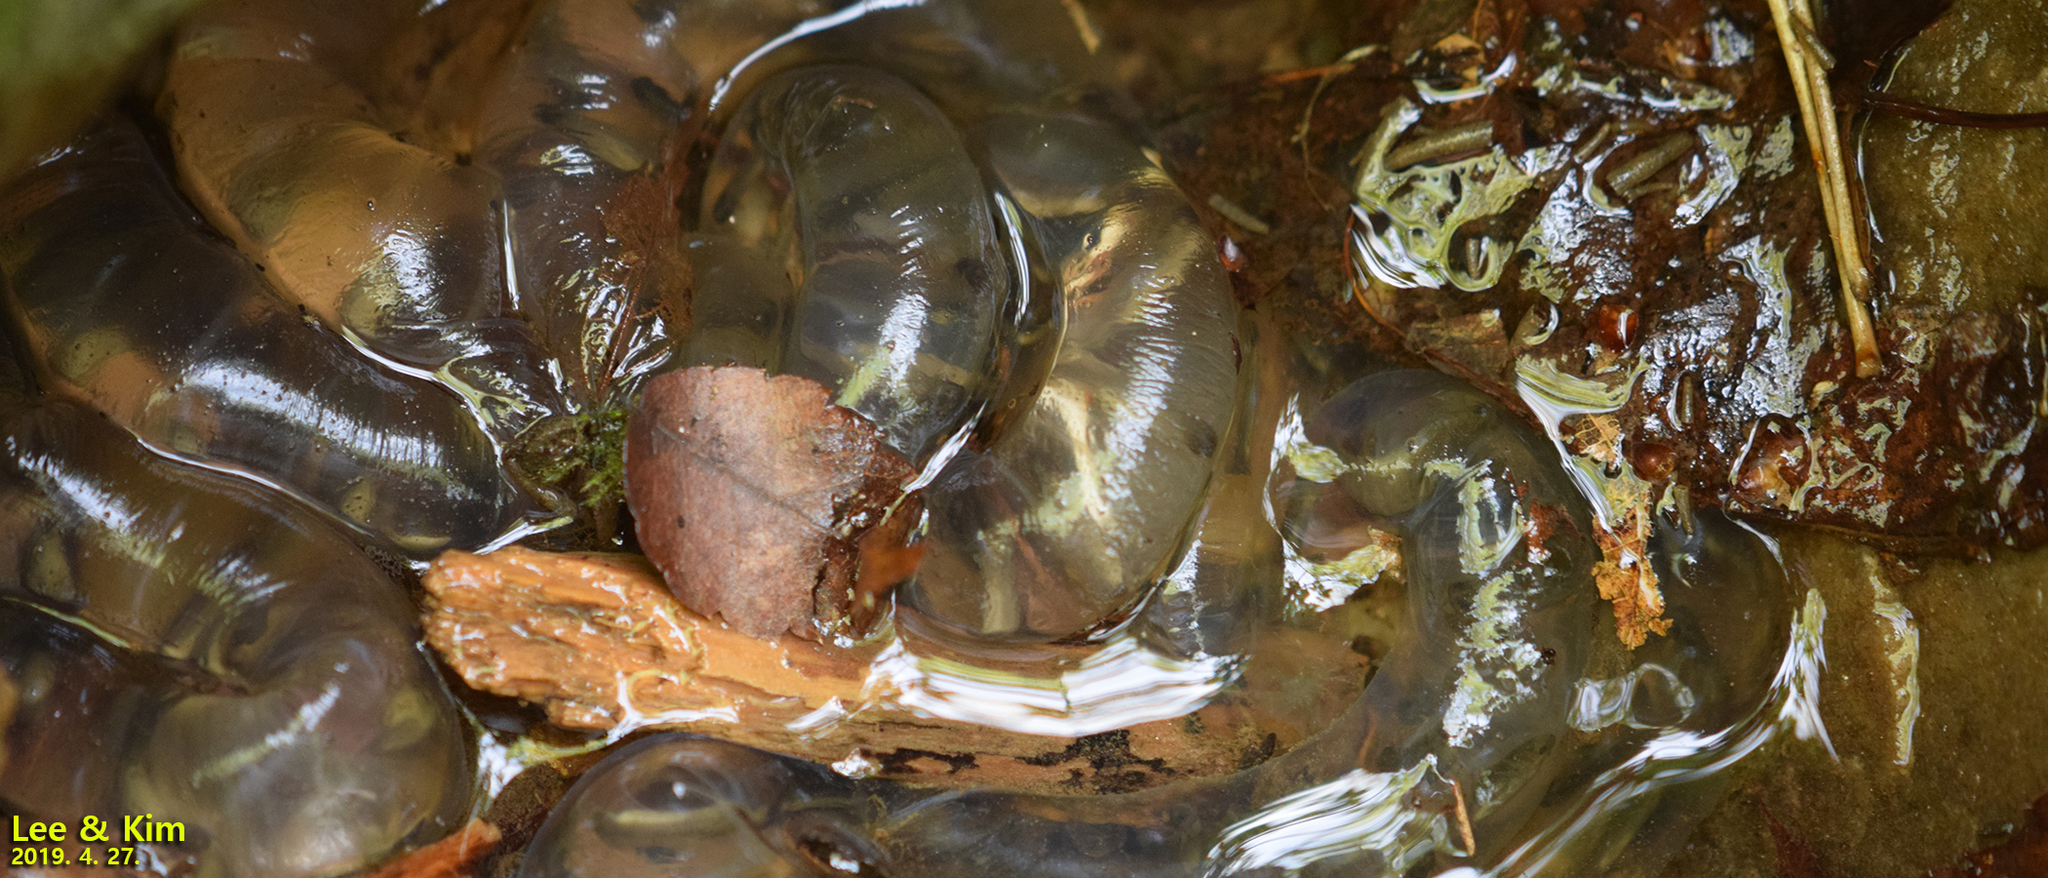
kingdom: Animalia
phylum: Chordata
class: Amphibia
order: Caudata
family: Hynobiidae
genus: Hynobius
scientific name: Hynobius leechii
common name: Gensan salamander
